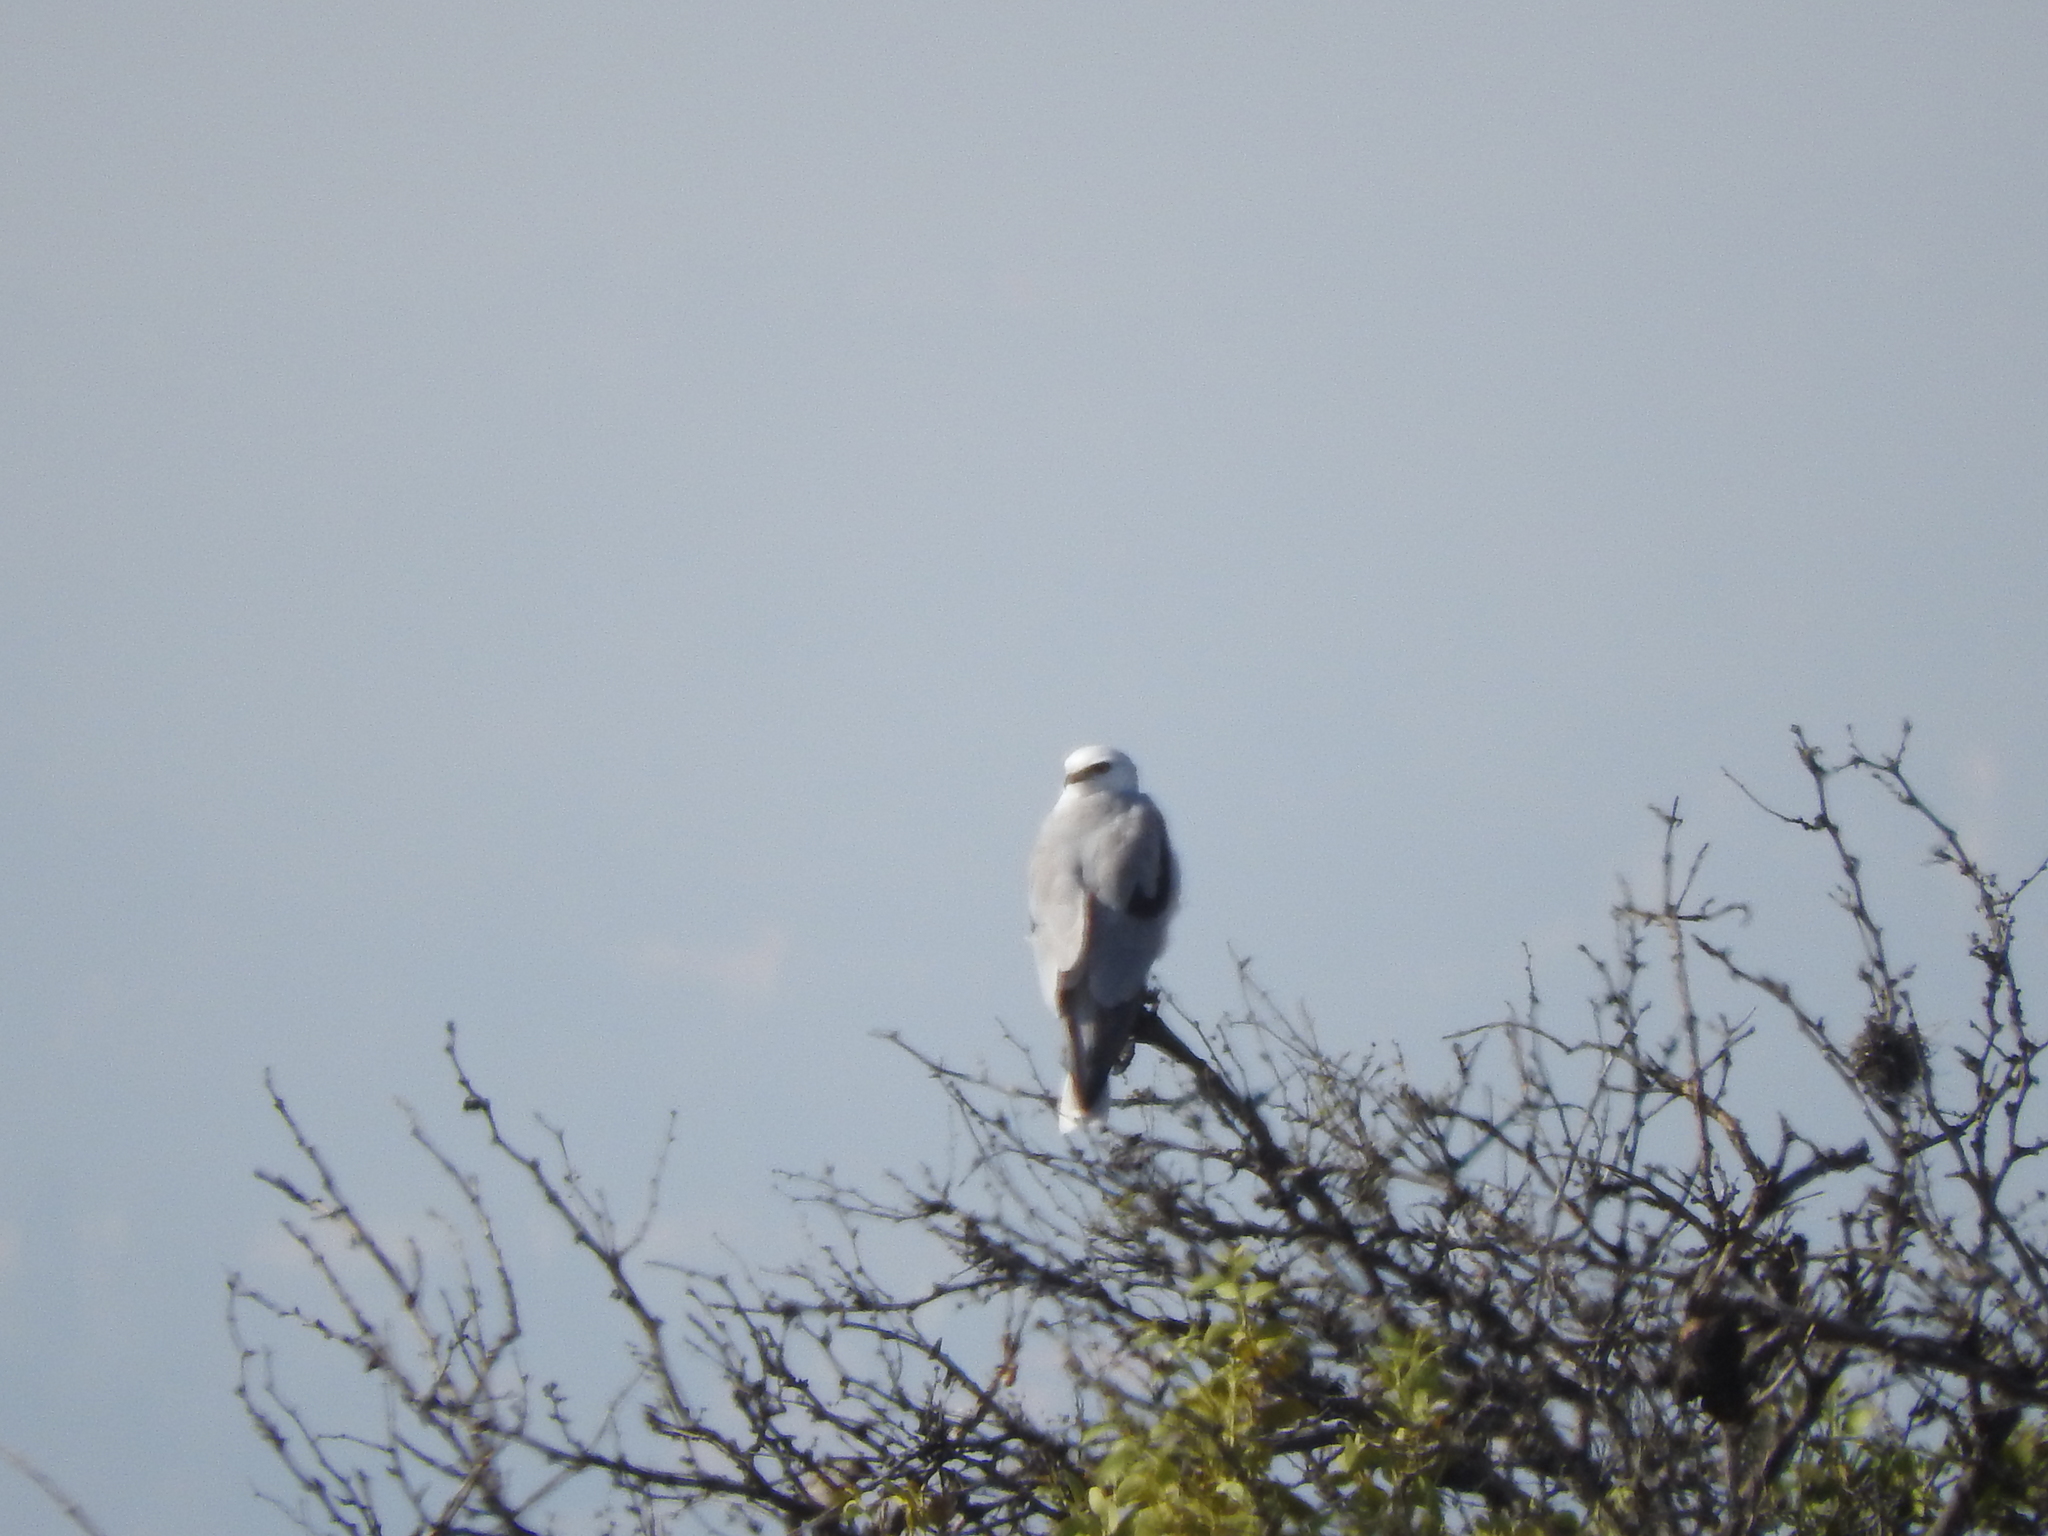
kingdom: Animalia
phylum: Chordata
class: Aves
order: Accipitriformes
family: Accipitridae
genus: Elanus
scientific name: Elanus leucurus
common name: White-tailed kite
